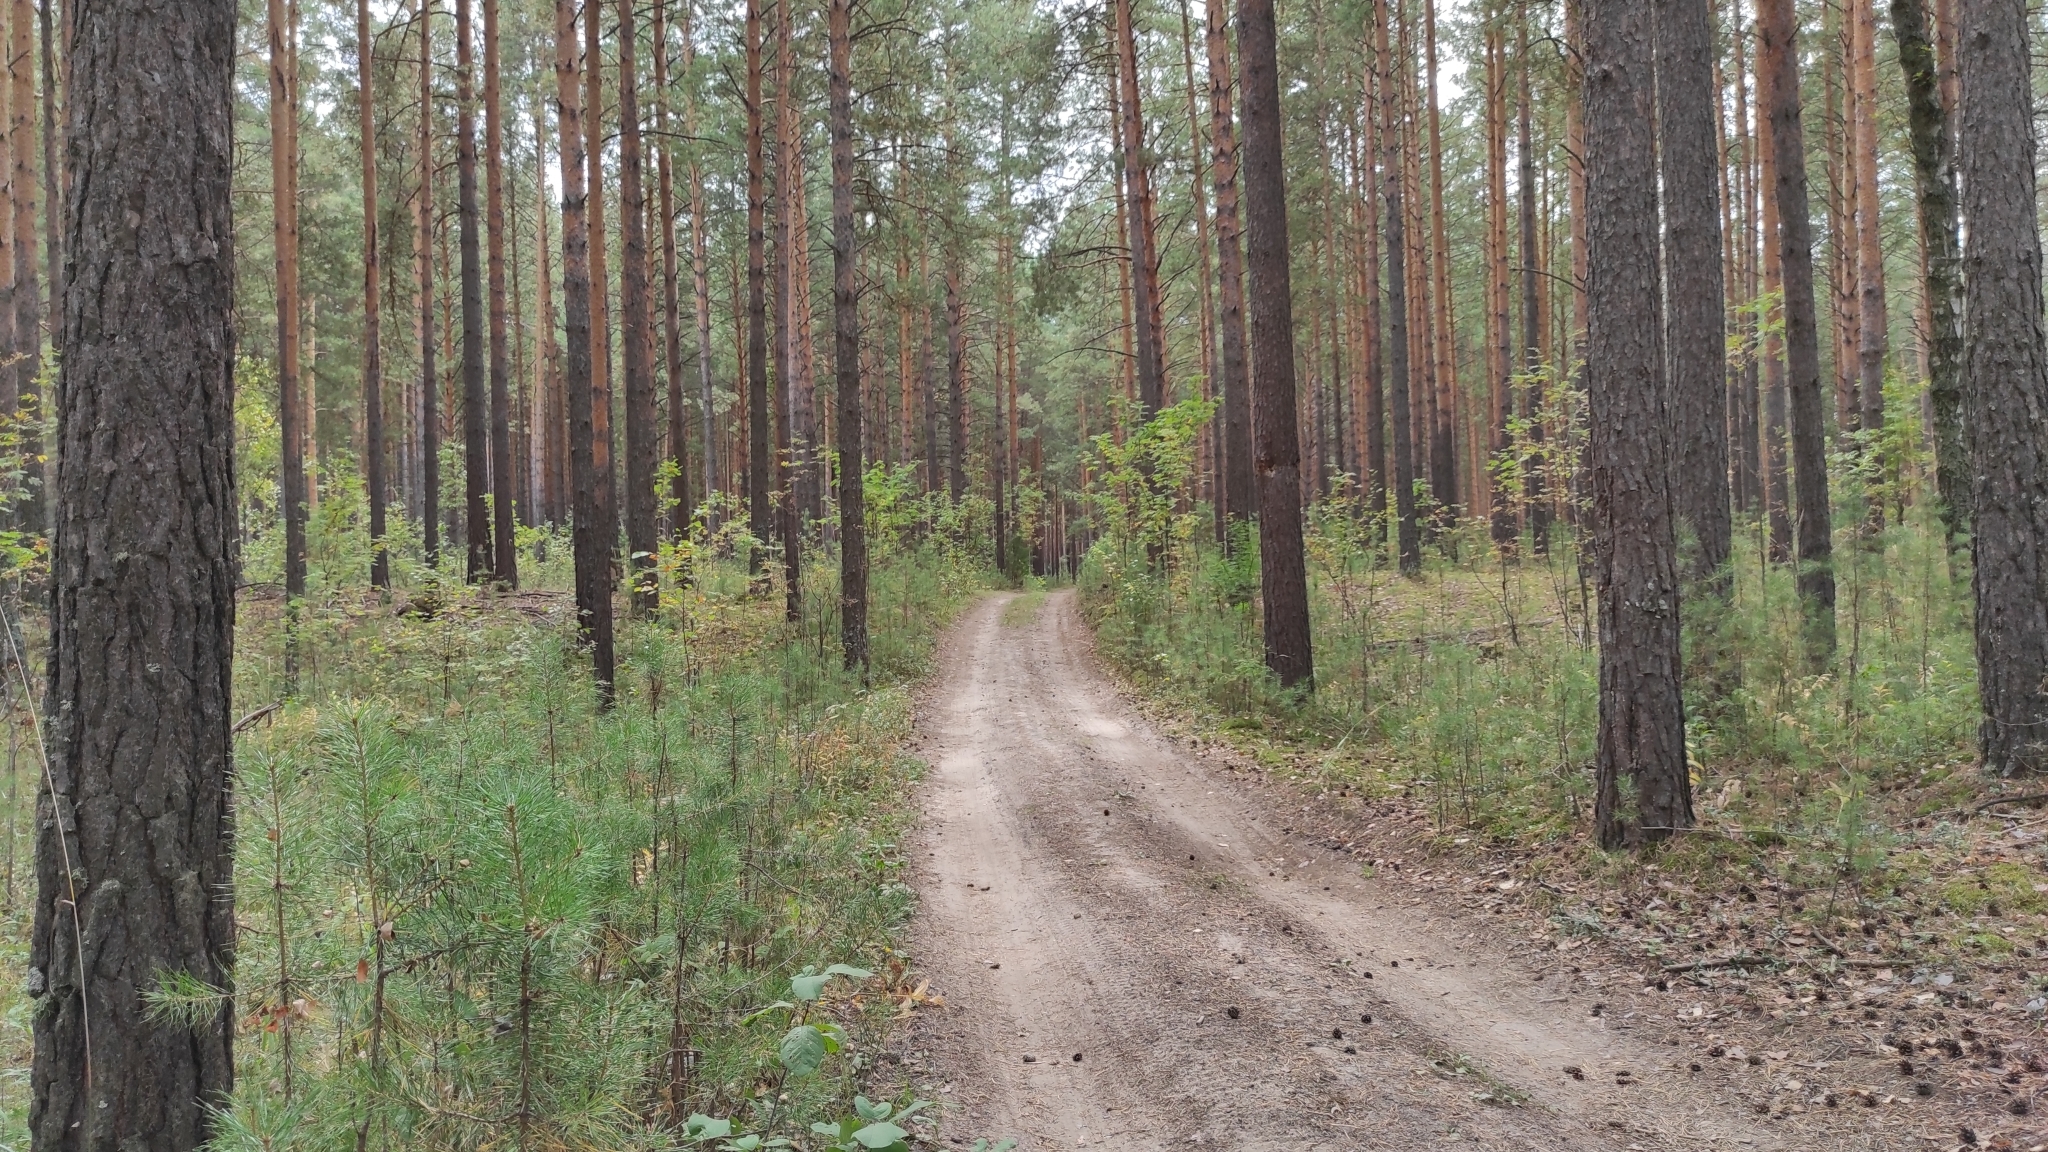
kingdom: Plantae
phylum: Tracheophyta
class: Pinopsida
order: Pinales
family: Pinaceae
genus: Pinus
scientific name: Pinus sylvestris
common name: Scots pine
